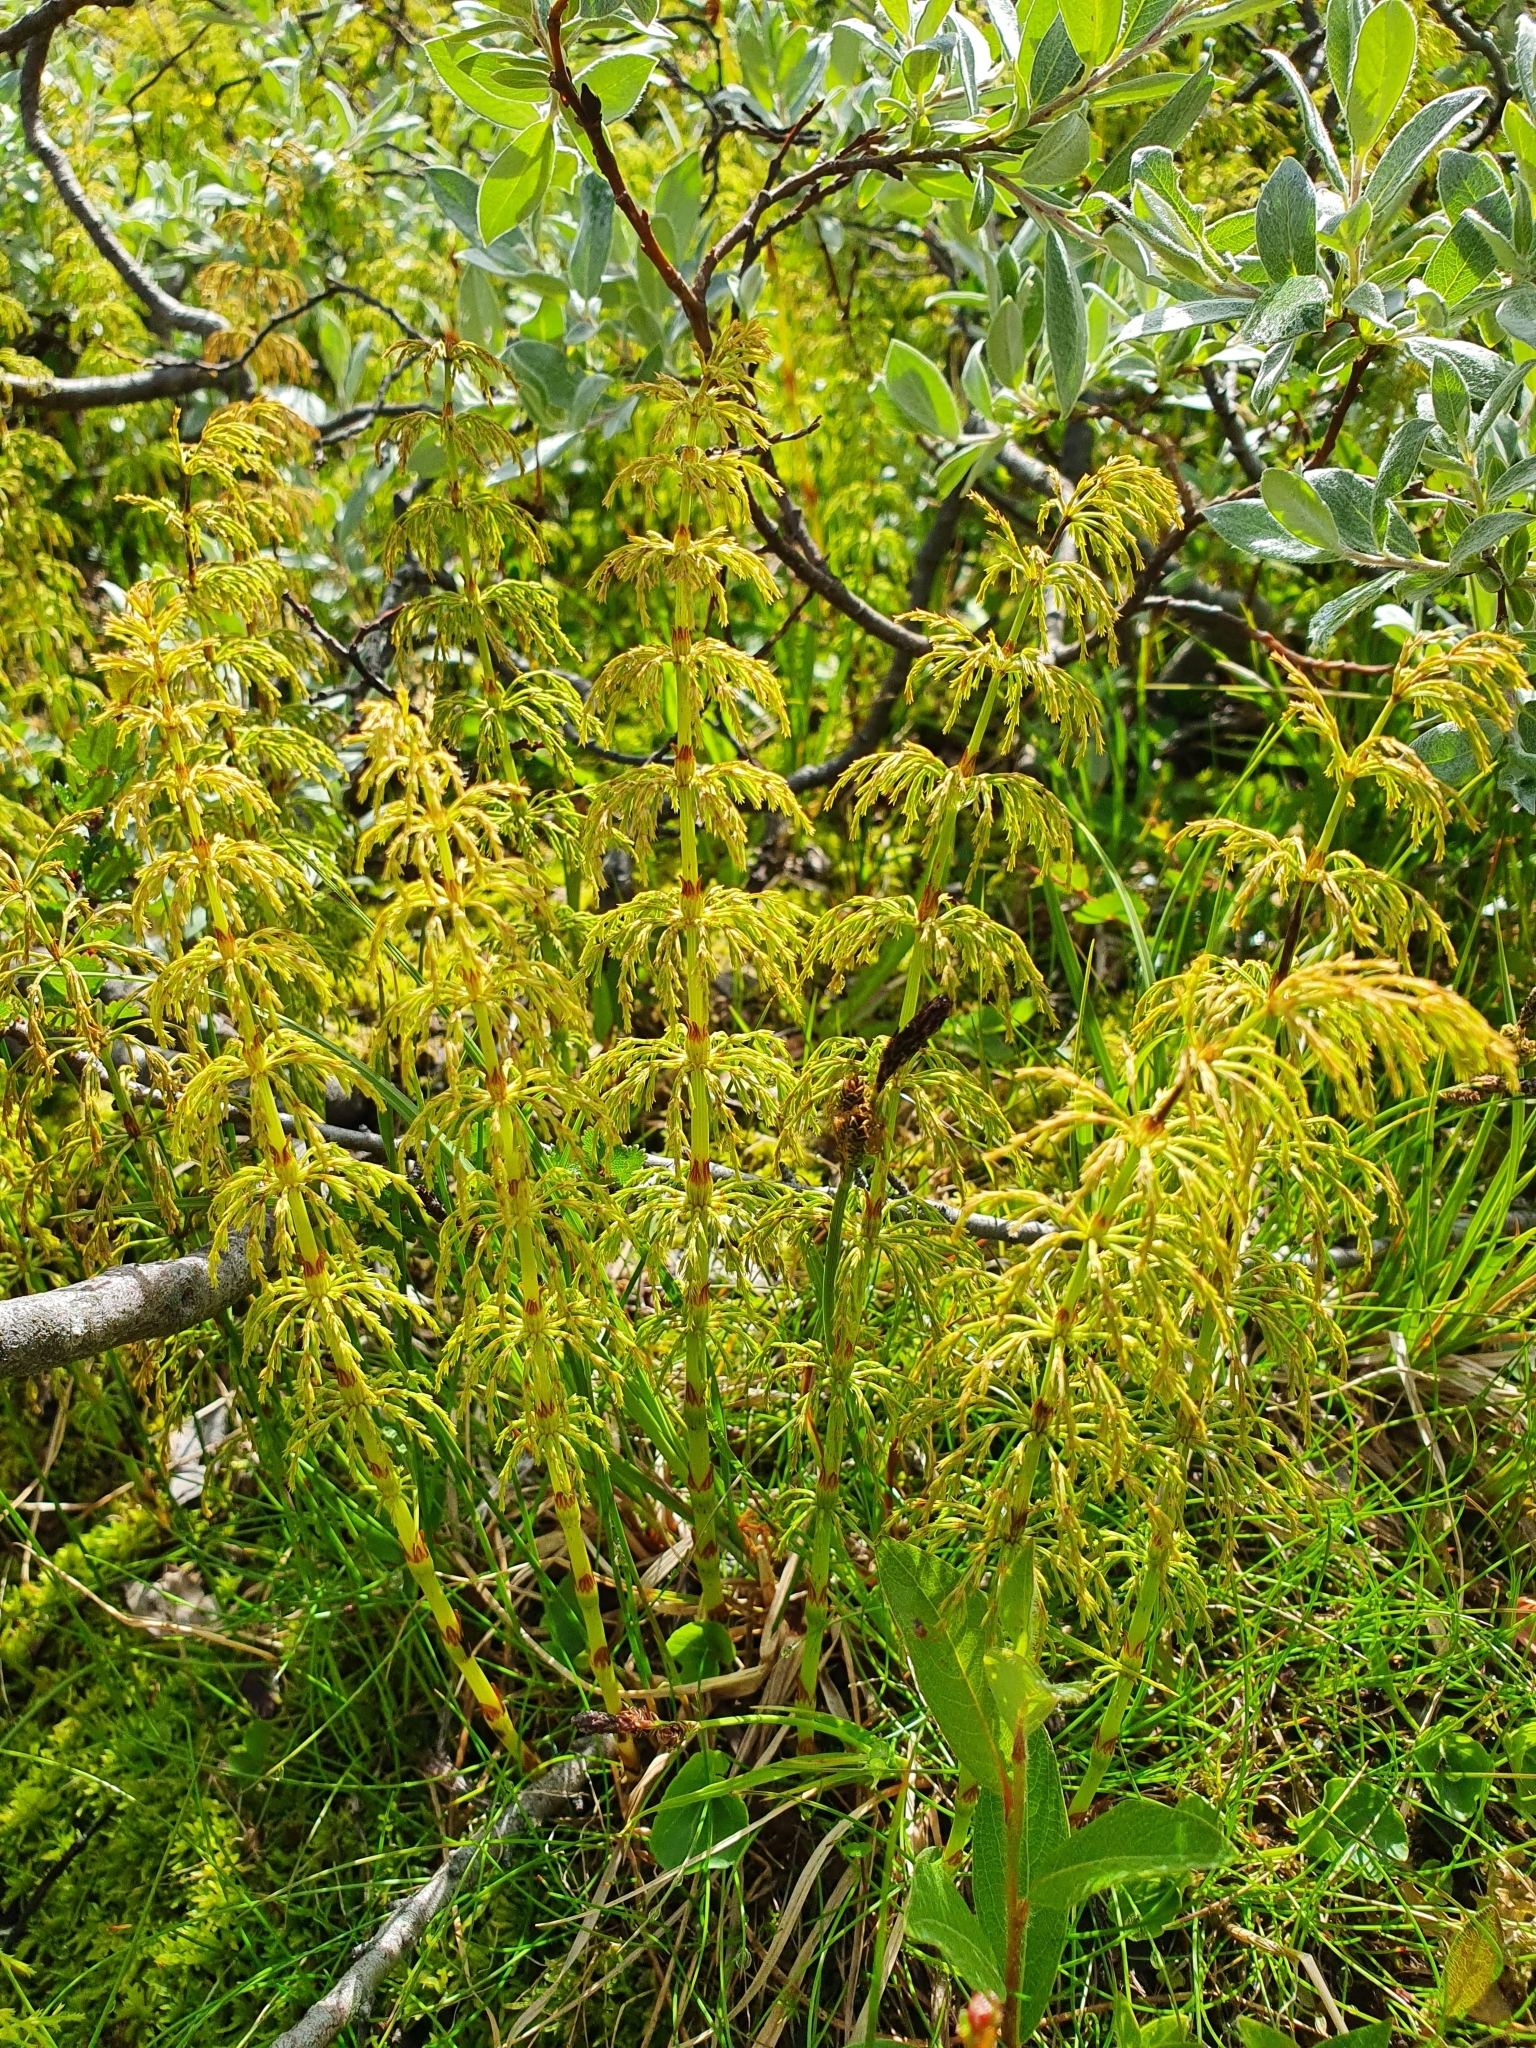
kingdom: Plantae
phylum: Tracheophyta
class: Polypodiopsida
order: Equisetales
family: Equisetaceae
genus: Equisetum
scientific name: Equisetum sylvaticum
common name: Wood horsetail
